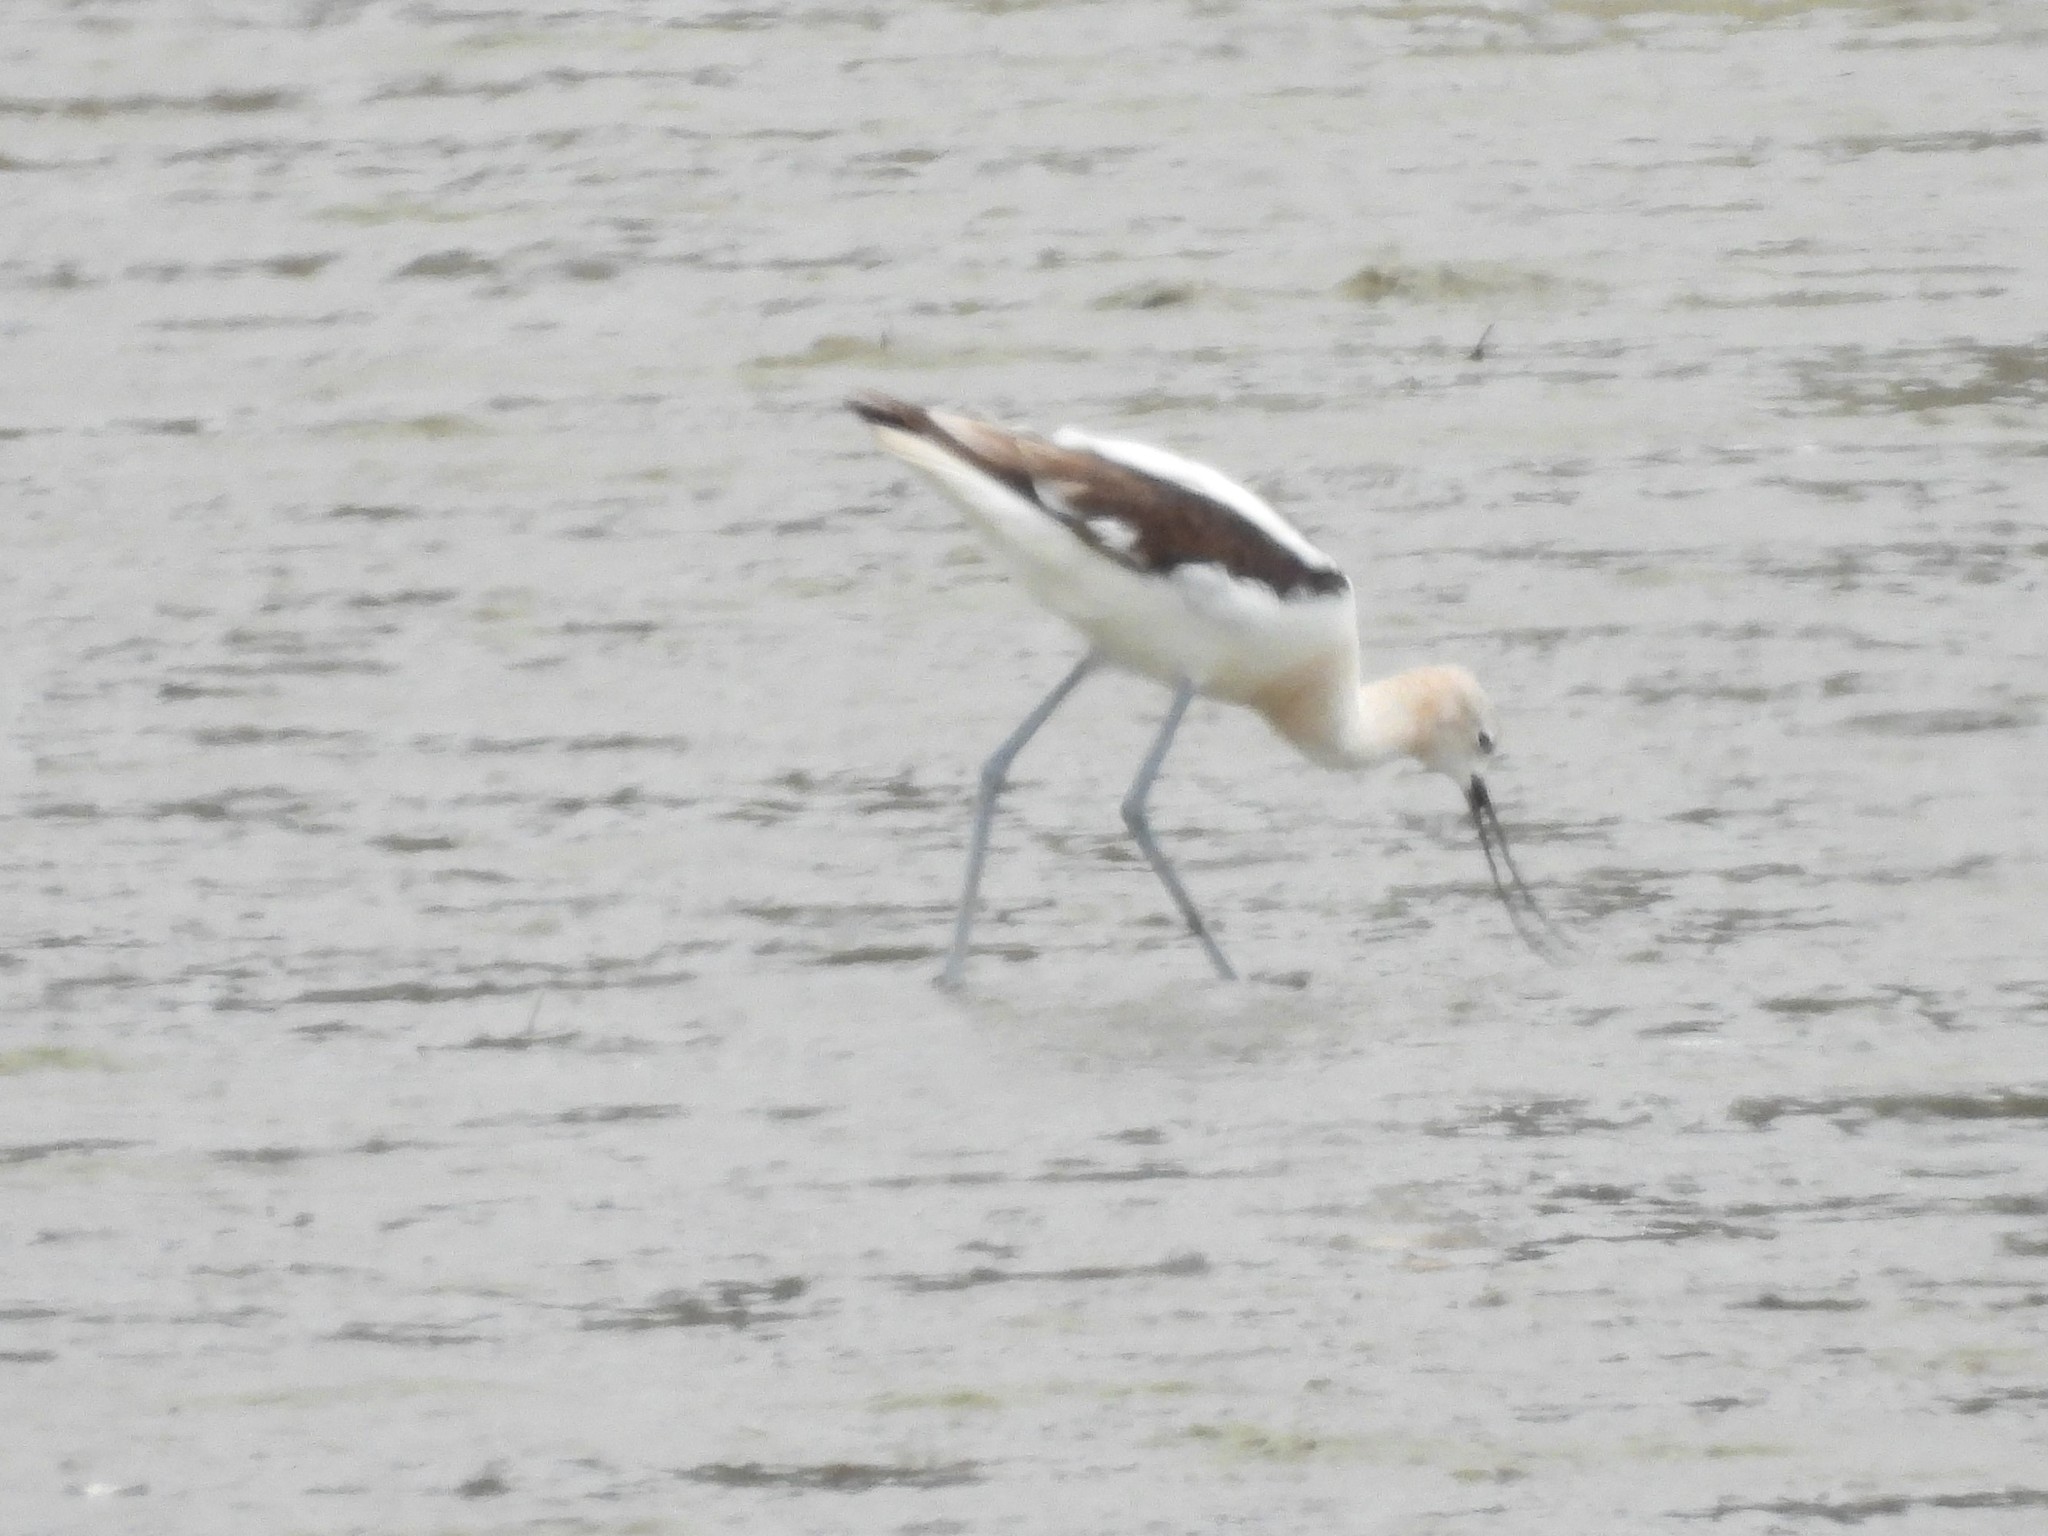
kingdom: Animalia
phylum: Chordata
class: Aves
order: Charadriiformes
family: Recurvirostridae
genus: Recurvirostra
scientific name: Recurvirostra americana
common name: American avocet
